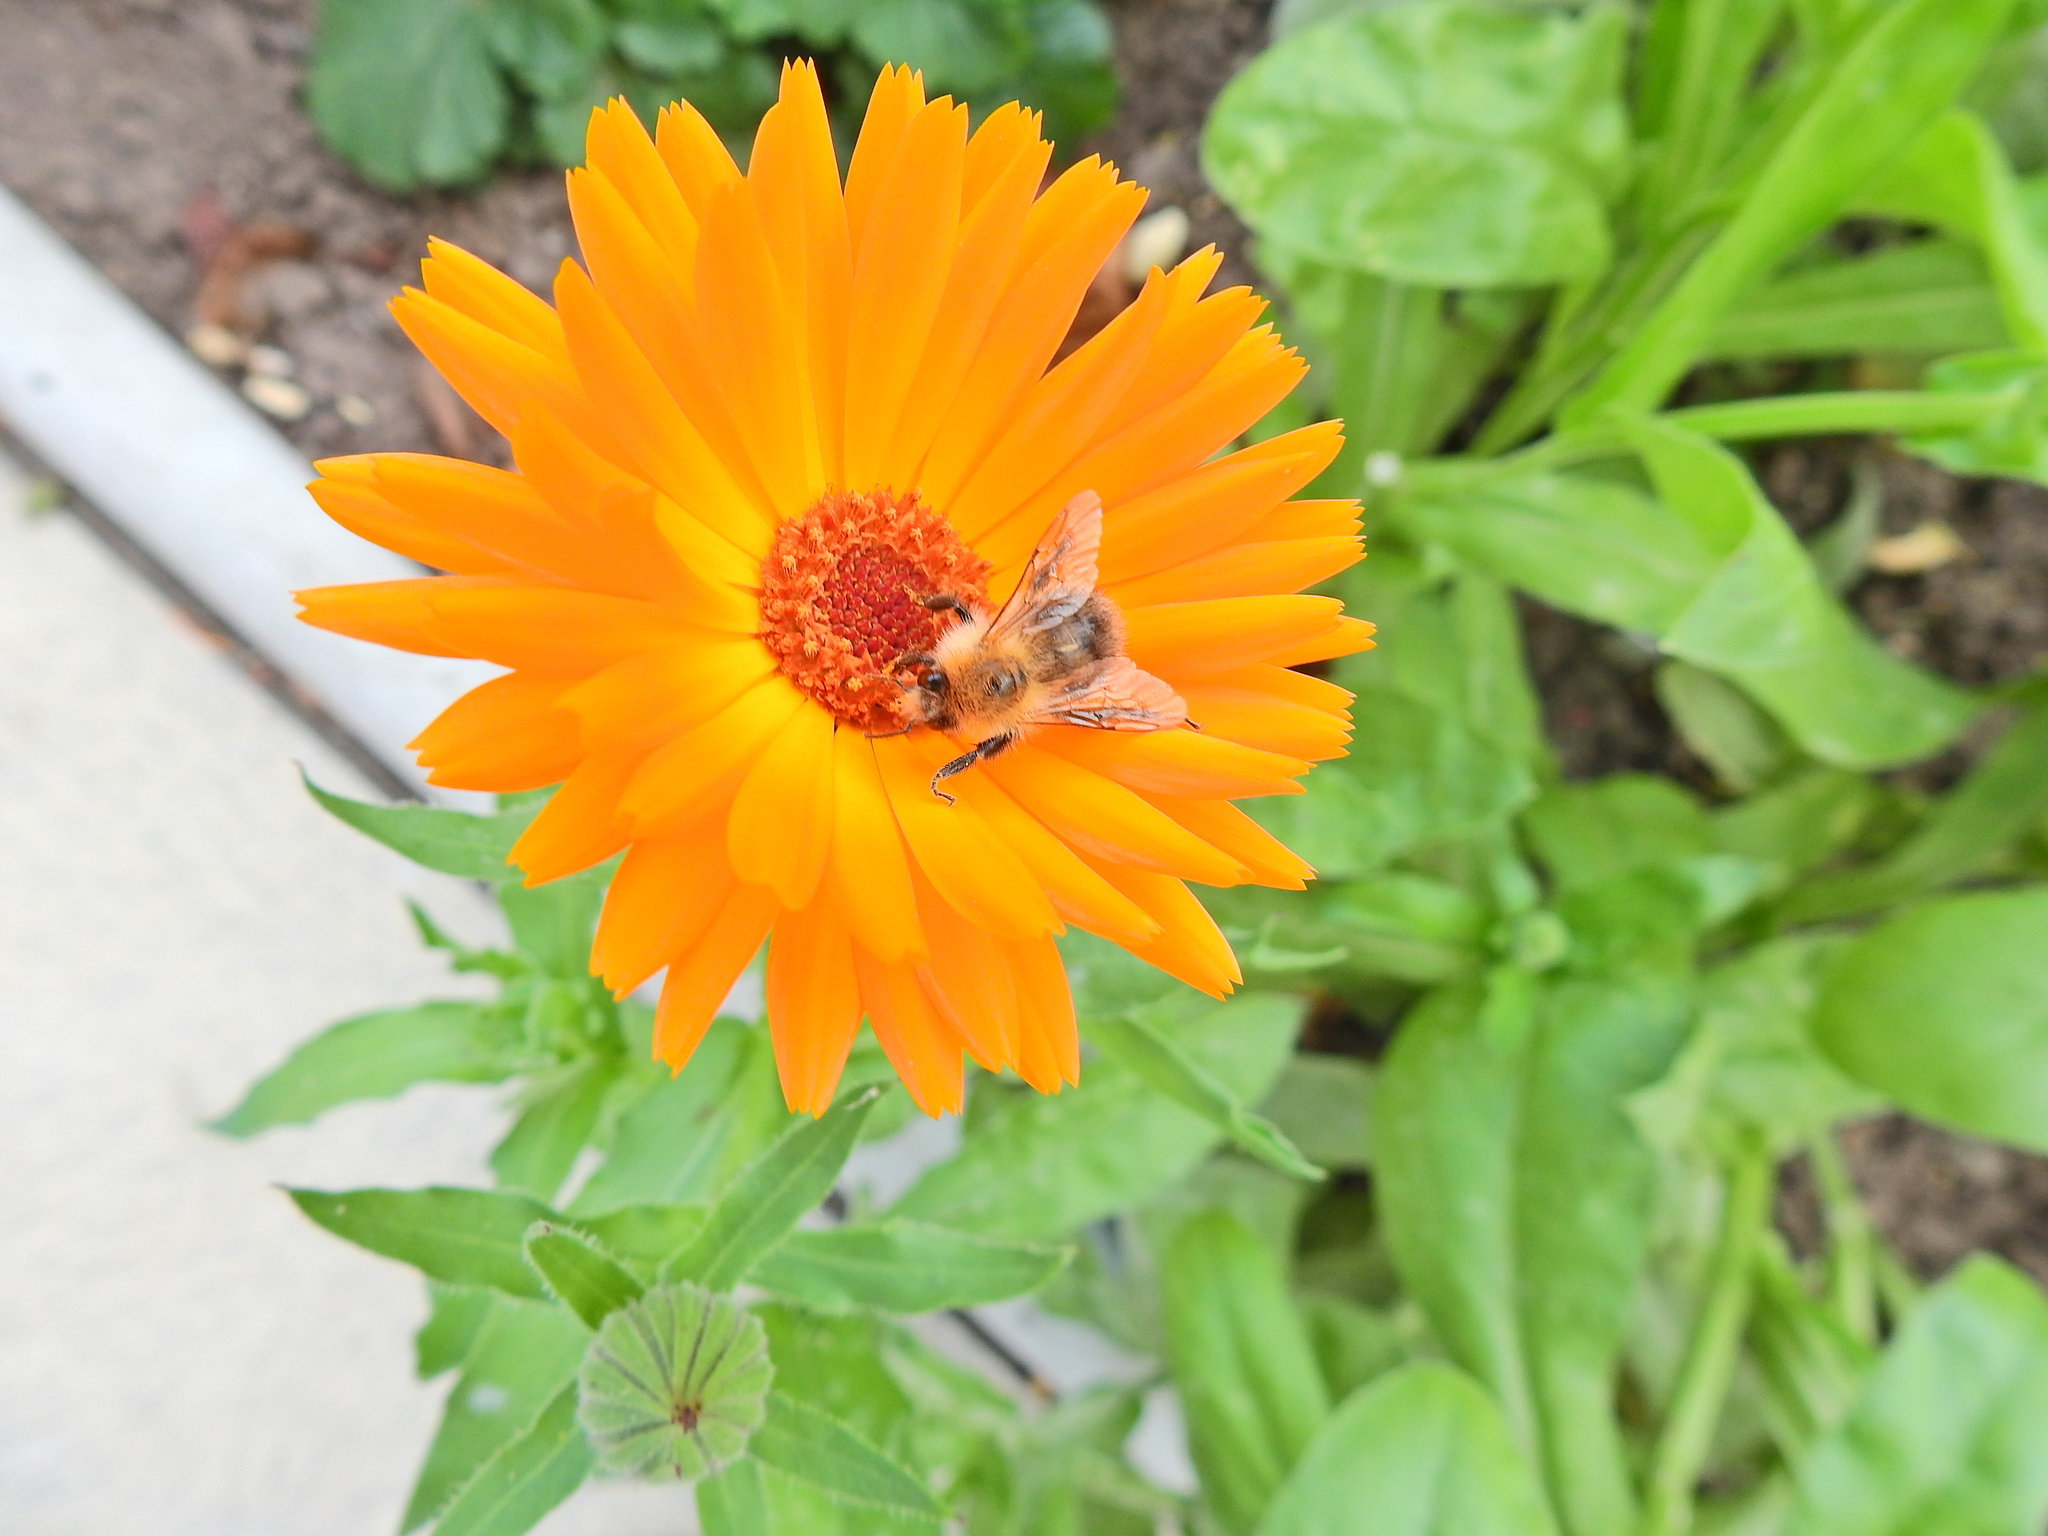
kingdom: Animalia
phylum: Arthropoda
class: Insecta
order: Hymenoptera
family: Apidae
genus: Bombus
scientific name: Bombus pascuorum
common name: Common carder bee
